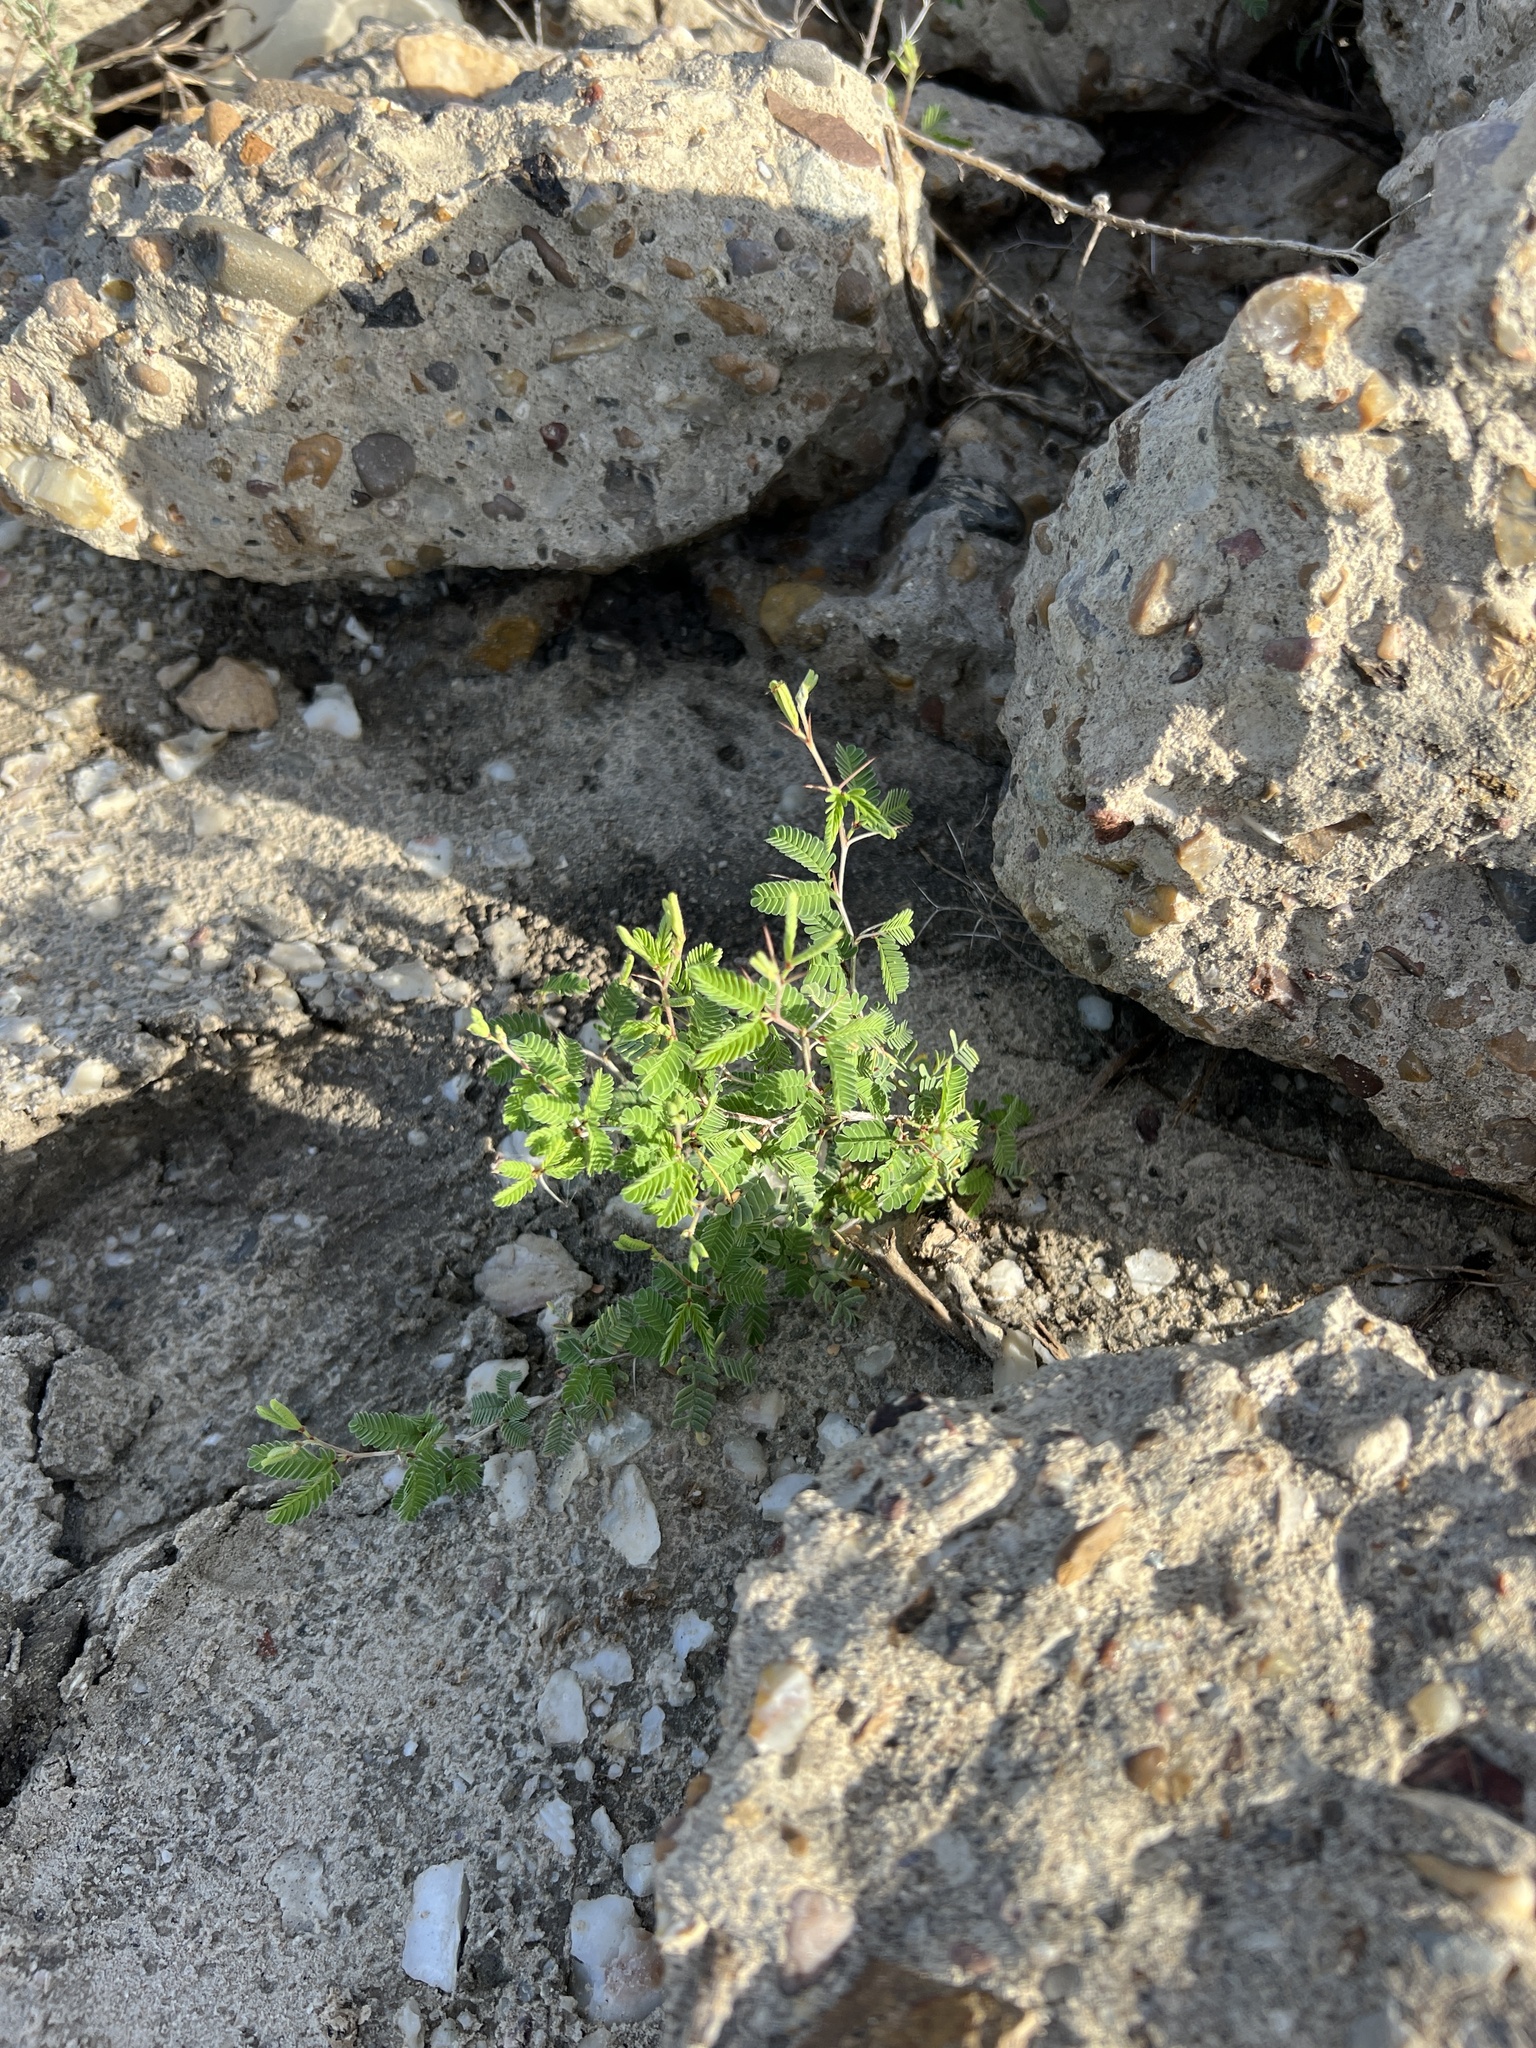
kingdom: Plantae
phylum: Tracheophyta
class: Magnoliopsida
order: Fabales
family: Fabaceae
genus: Prosopis
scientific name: Prosopis cinerascens
